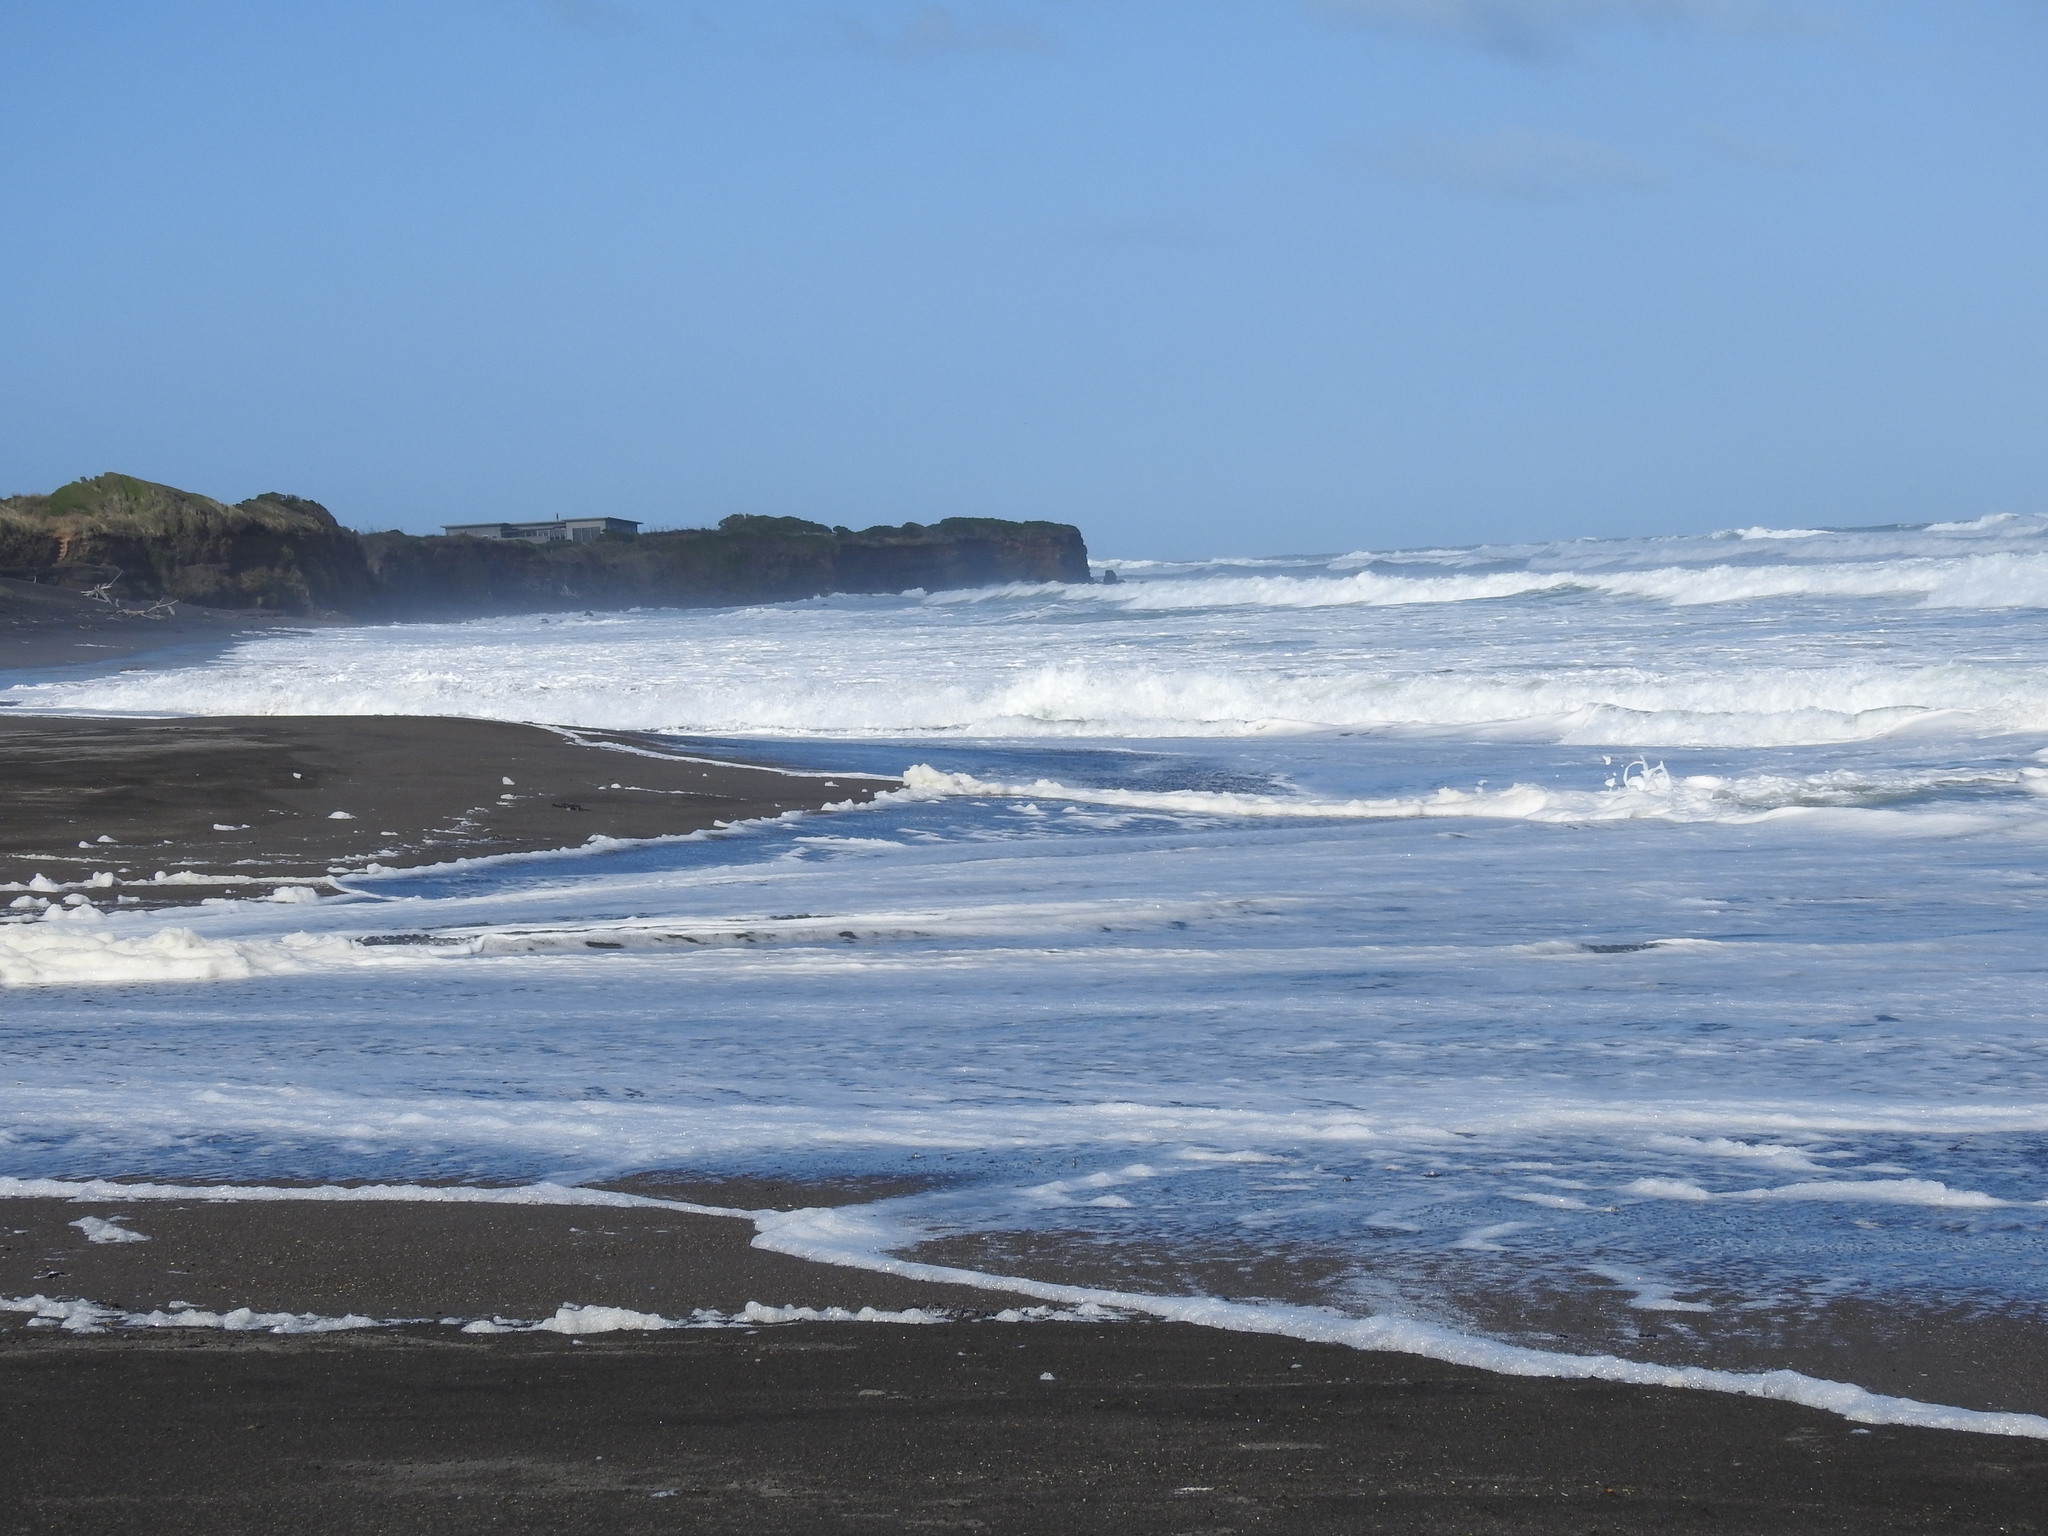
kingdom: Animalia
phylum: Chordata
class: Aves
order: Charadriiformes
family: Charadriidae
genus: Anarhynchus
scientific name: Anarhynchus
